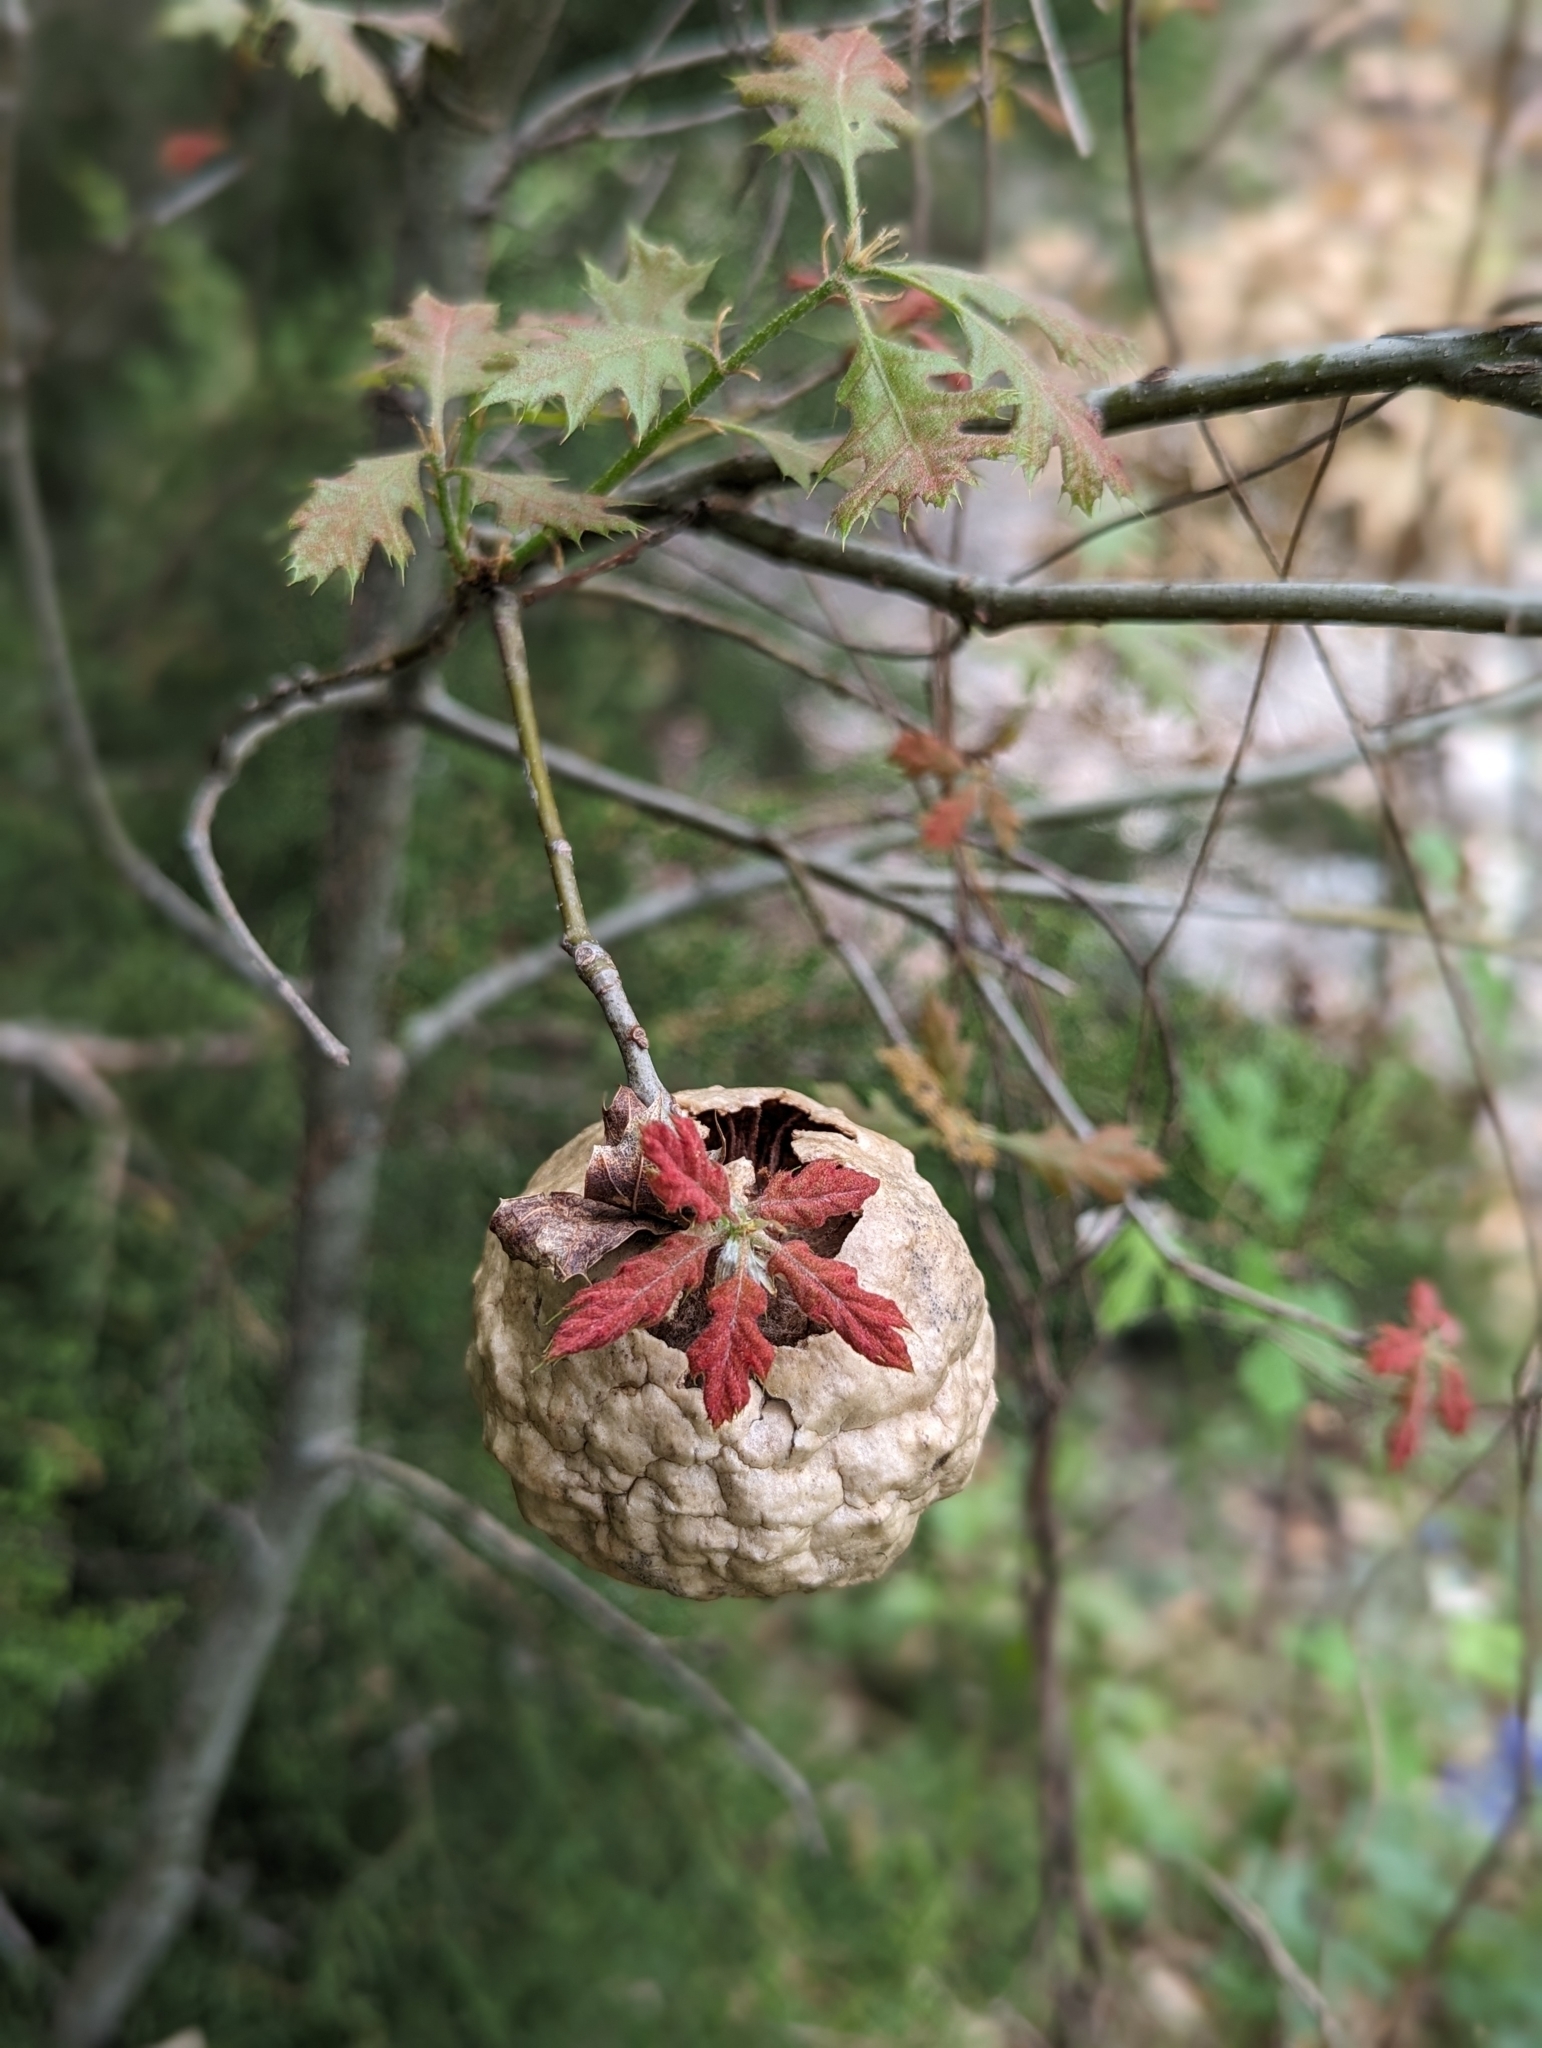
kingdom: Animalia
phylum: Arthropoda
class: Insecta
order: Hymenoptera
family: Cynipidae
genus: Amphibolips
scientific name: Amphibolips
